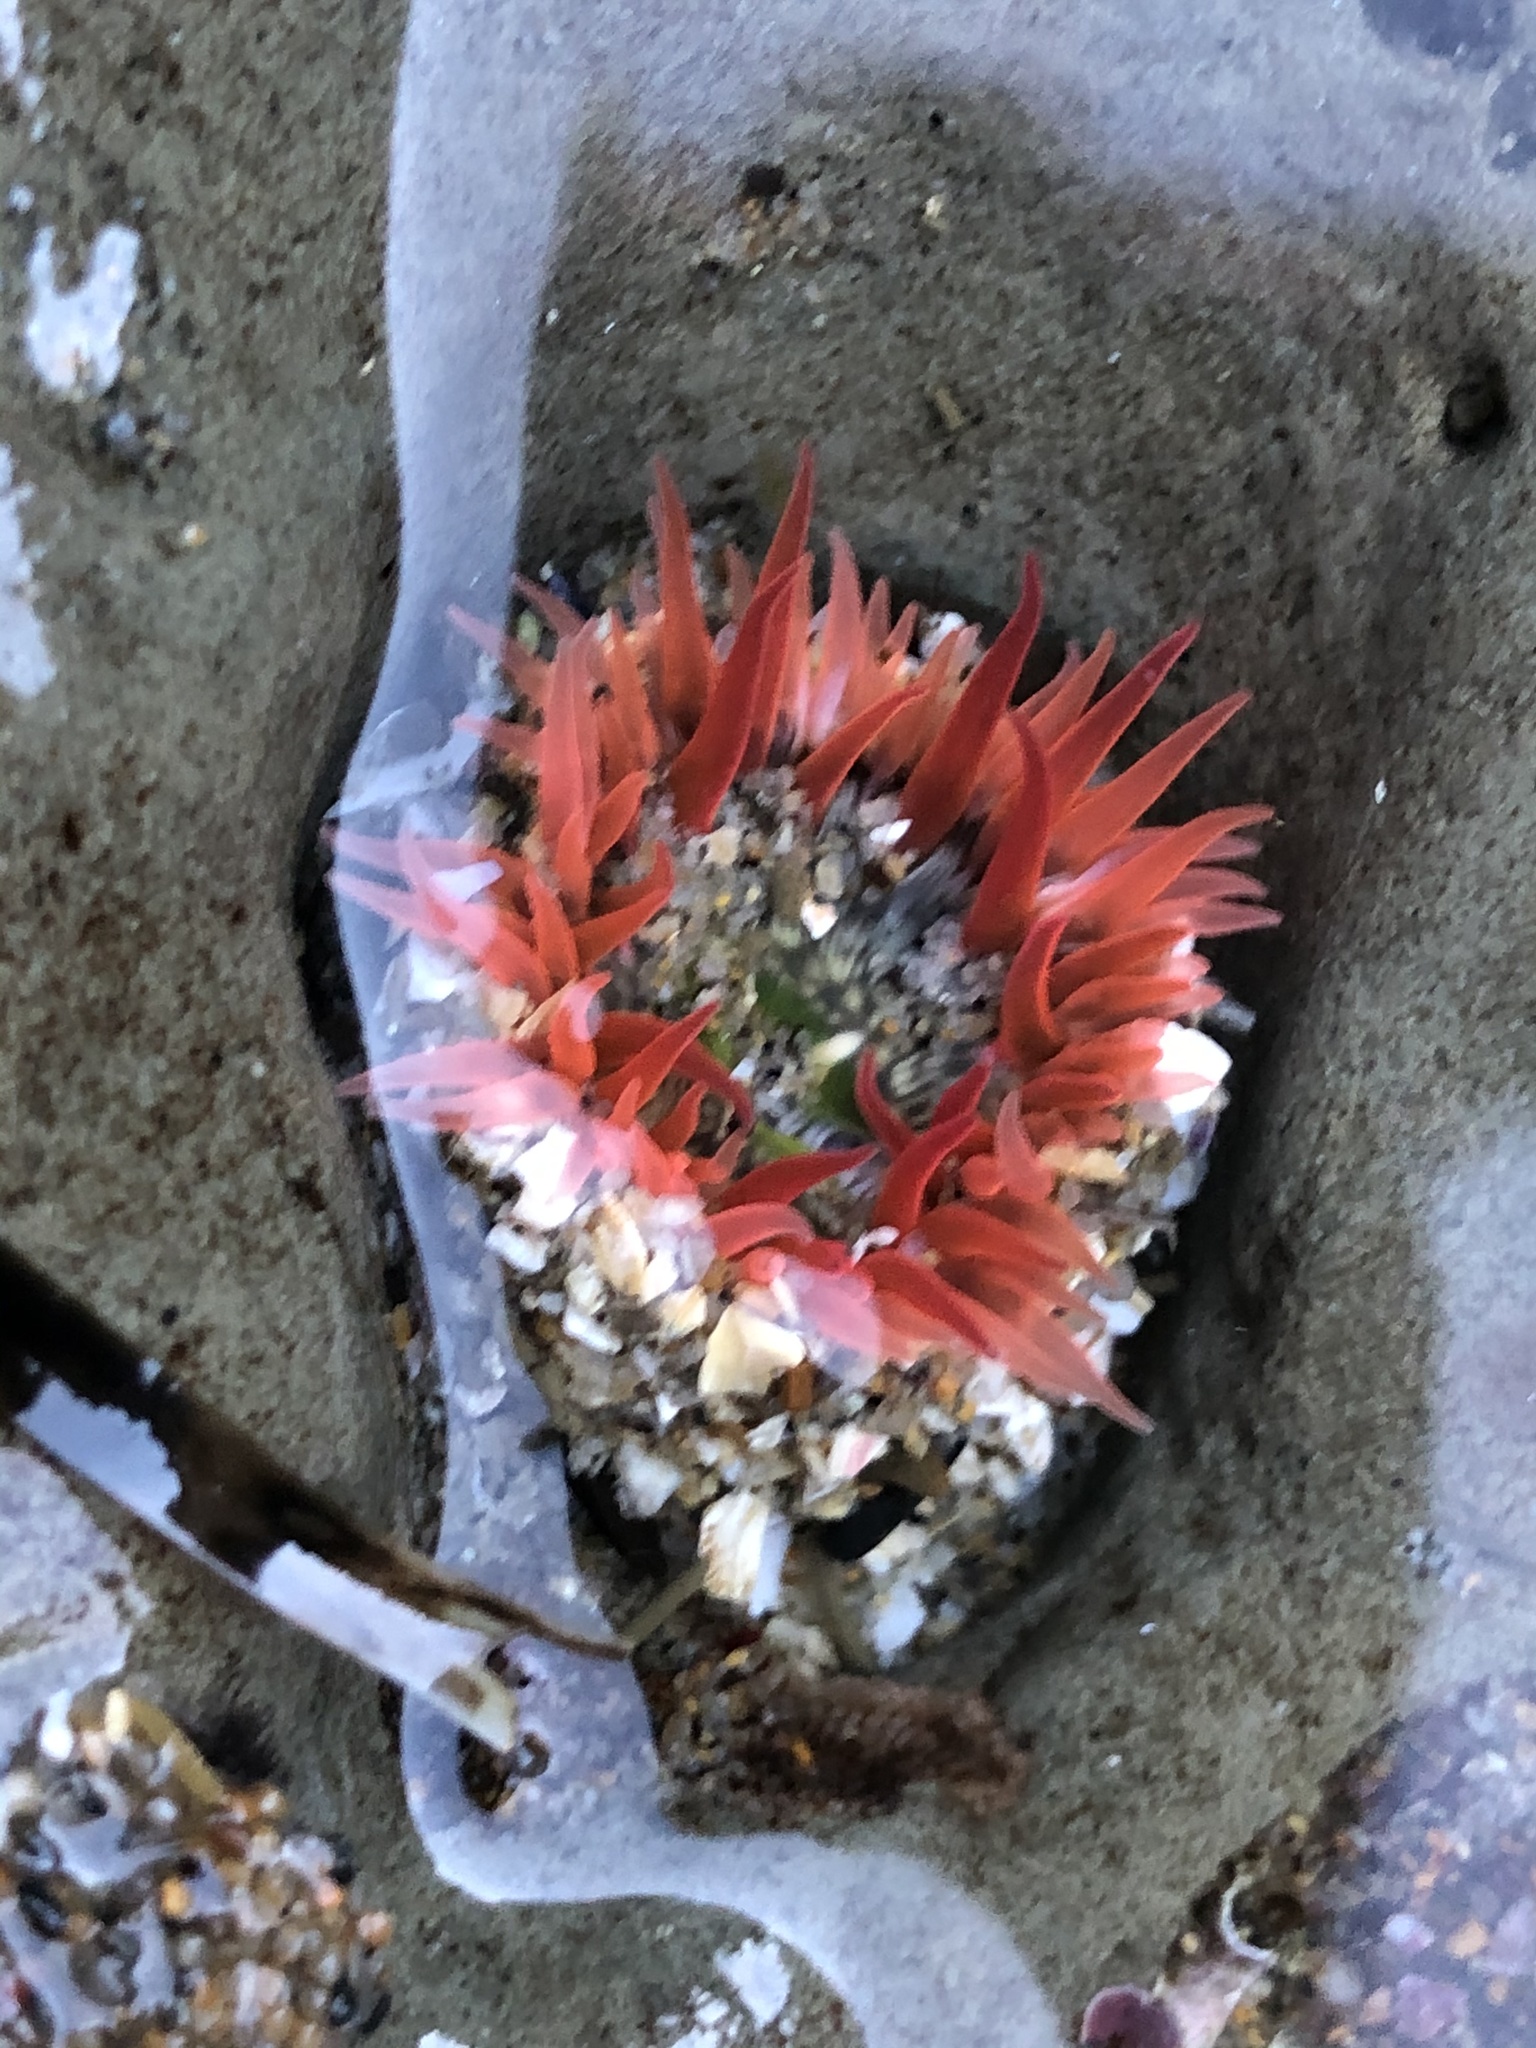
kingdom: Animalia
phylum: Cnidaria
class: Anthozoa
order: Actiniaria
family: Actiniidae
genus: Anthopleura
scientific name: Anthopleura artemisia
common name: Buried sea anemone
